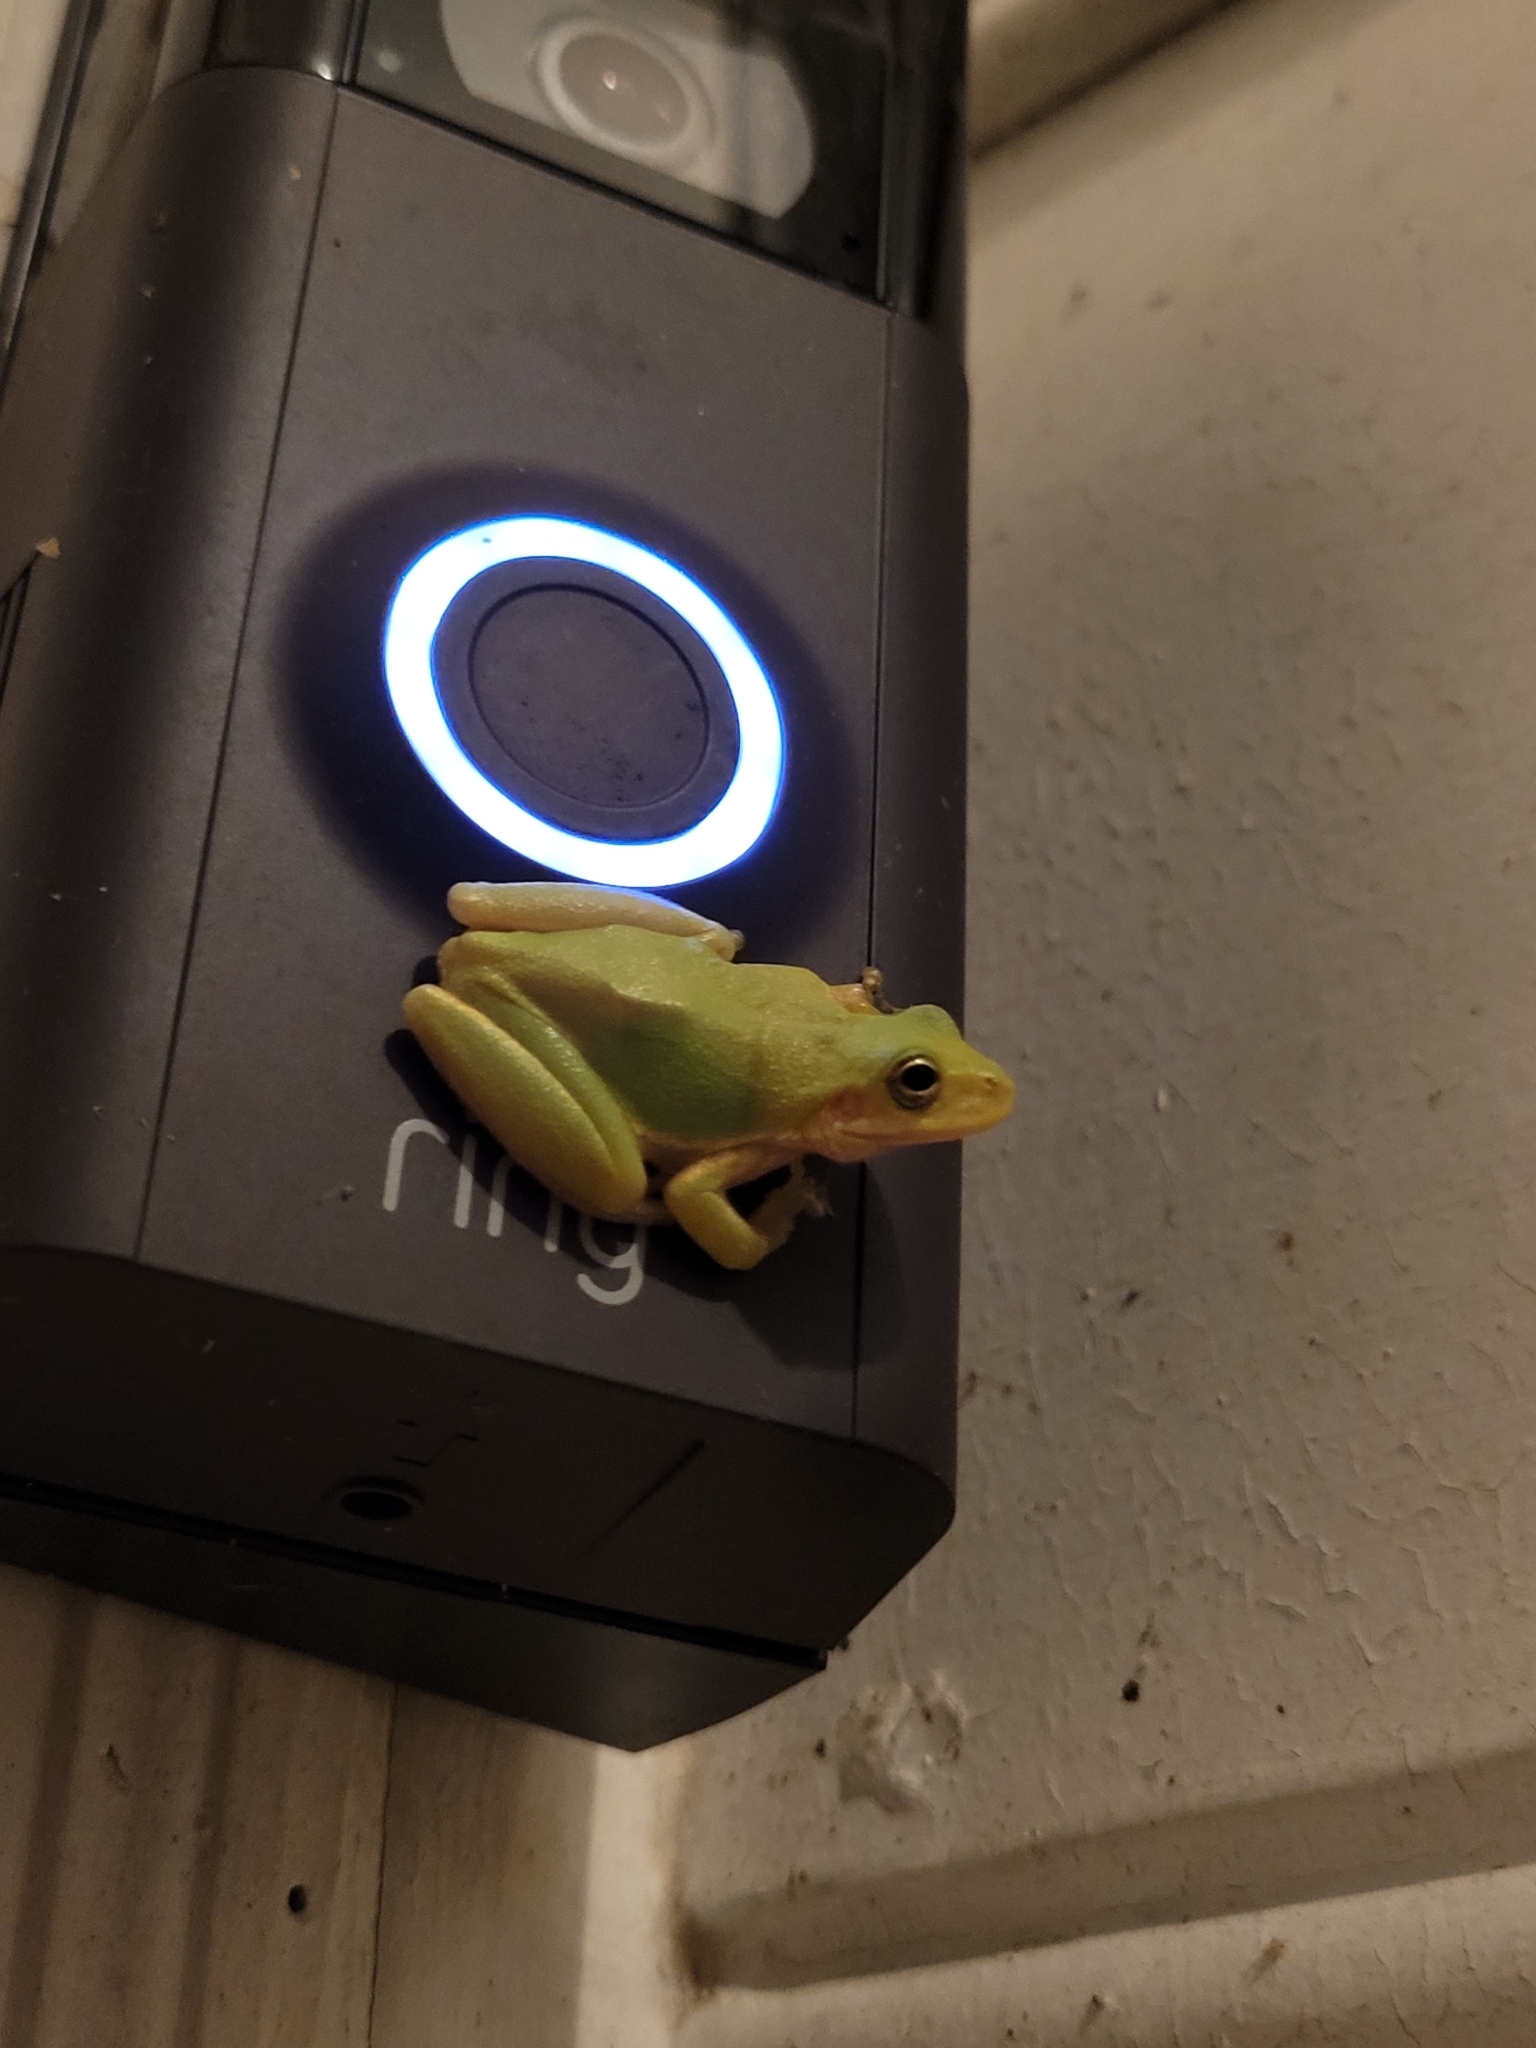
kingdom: Animalia
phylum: Chordata
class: Amphibia
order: Anura
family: Hylidae
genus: Dryophytes
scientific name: Dryophytes squirellus
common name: Squirrel treefrog
